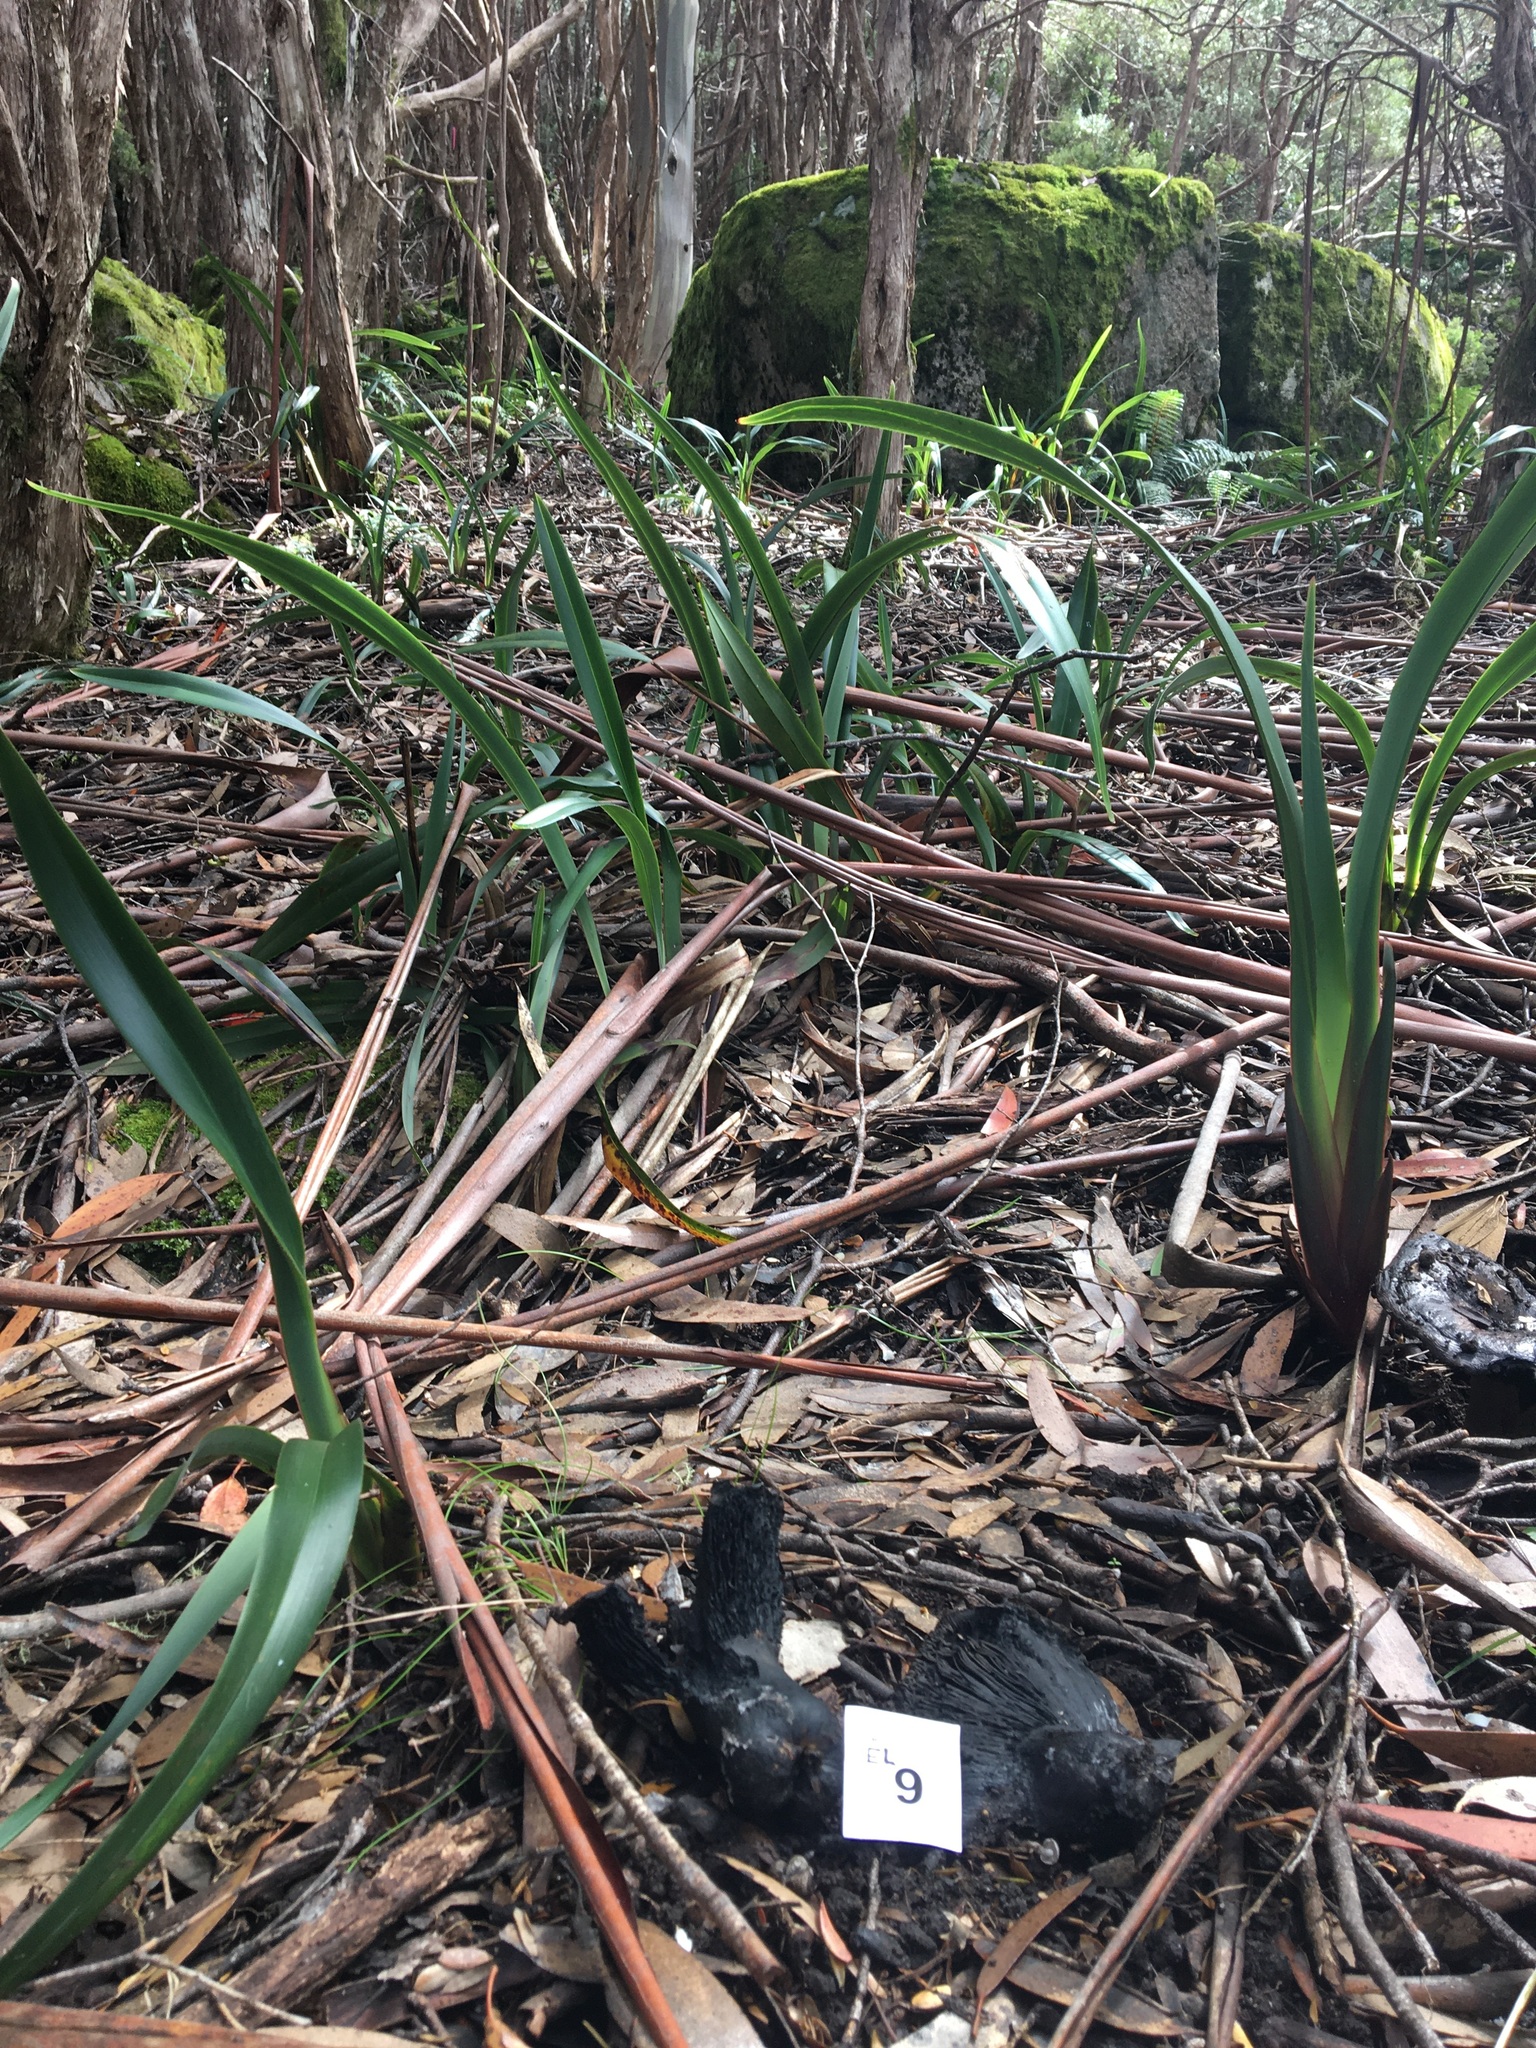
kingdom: Fungi
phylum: Basidiomycota
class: Agaricomycetes
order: Agaricales
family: Lyophyllaceae
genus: Asterophora
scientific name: Asterophora mirabilis
